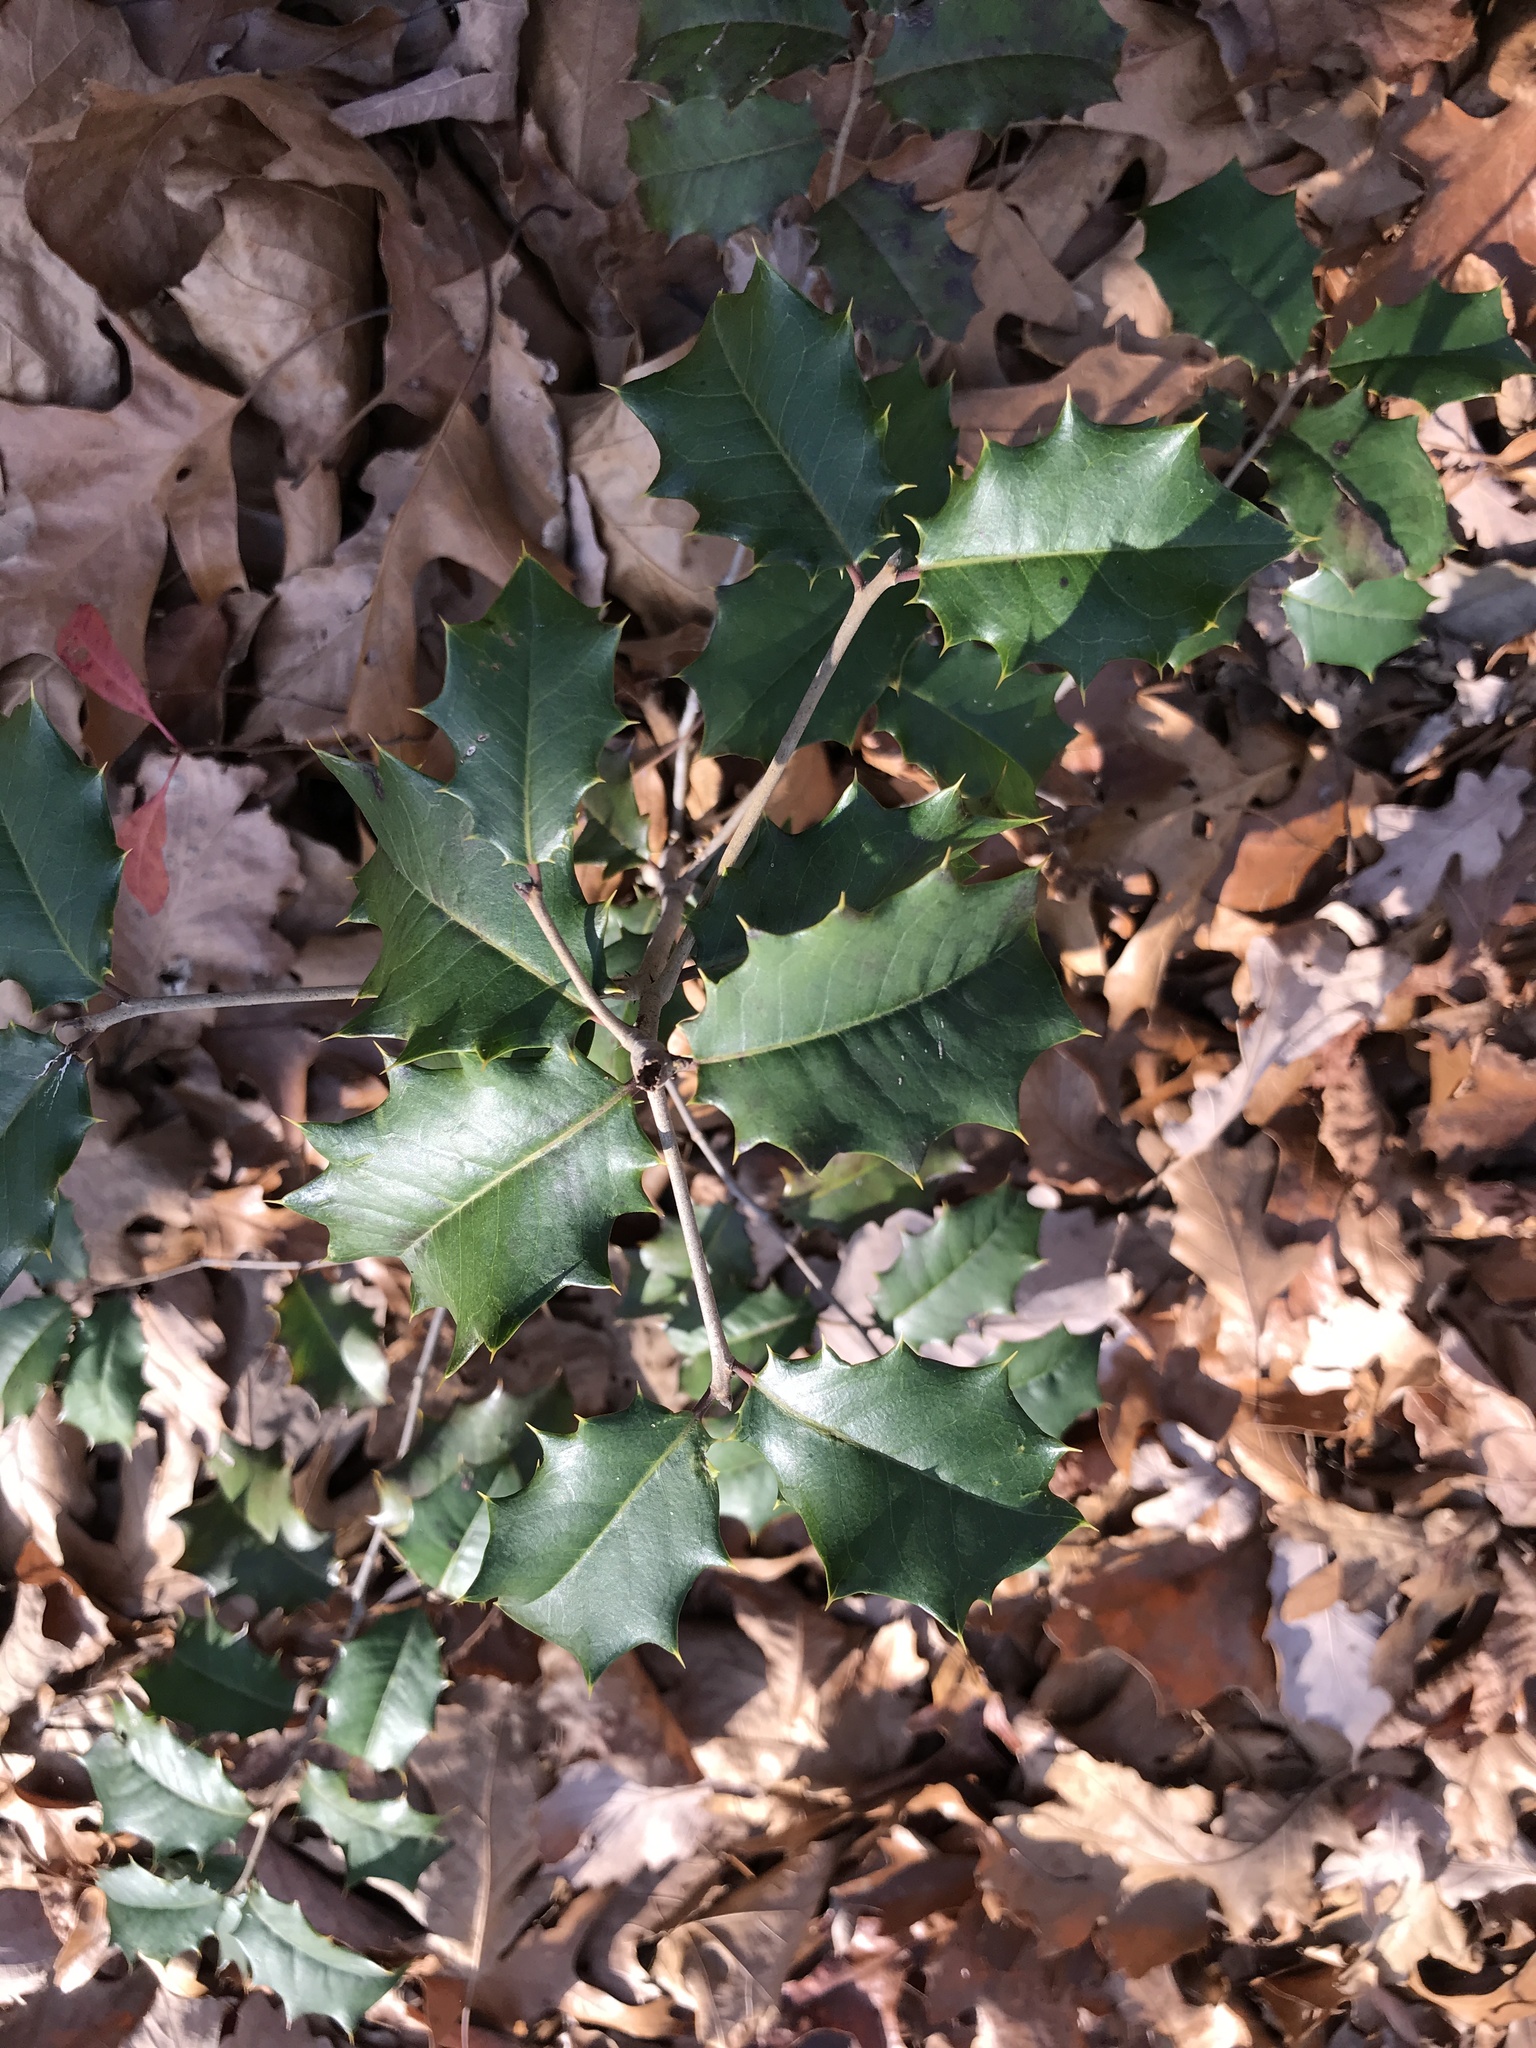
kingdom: Plantae
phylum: Tracheophyta
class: Magnoliopsida
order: Aquifoliales
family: Aquifoliaceae
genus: Ilex
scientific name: Ilex opaca
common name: American holly
